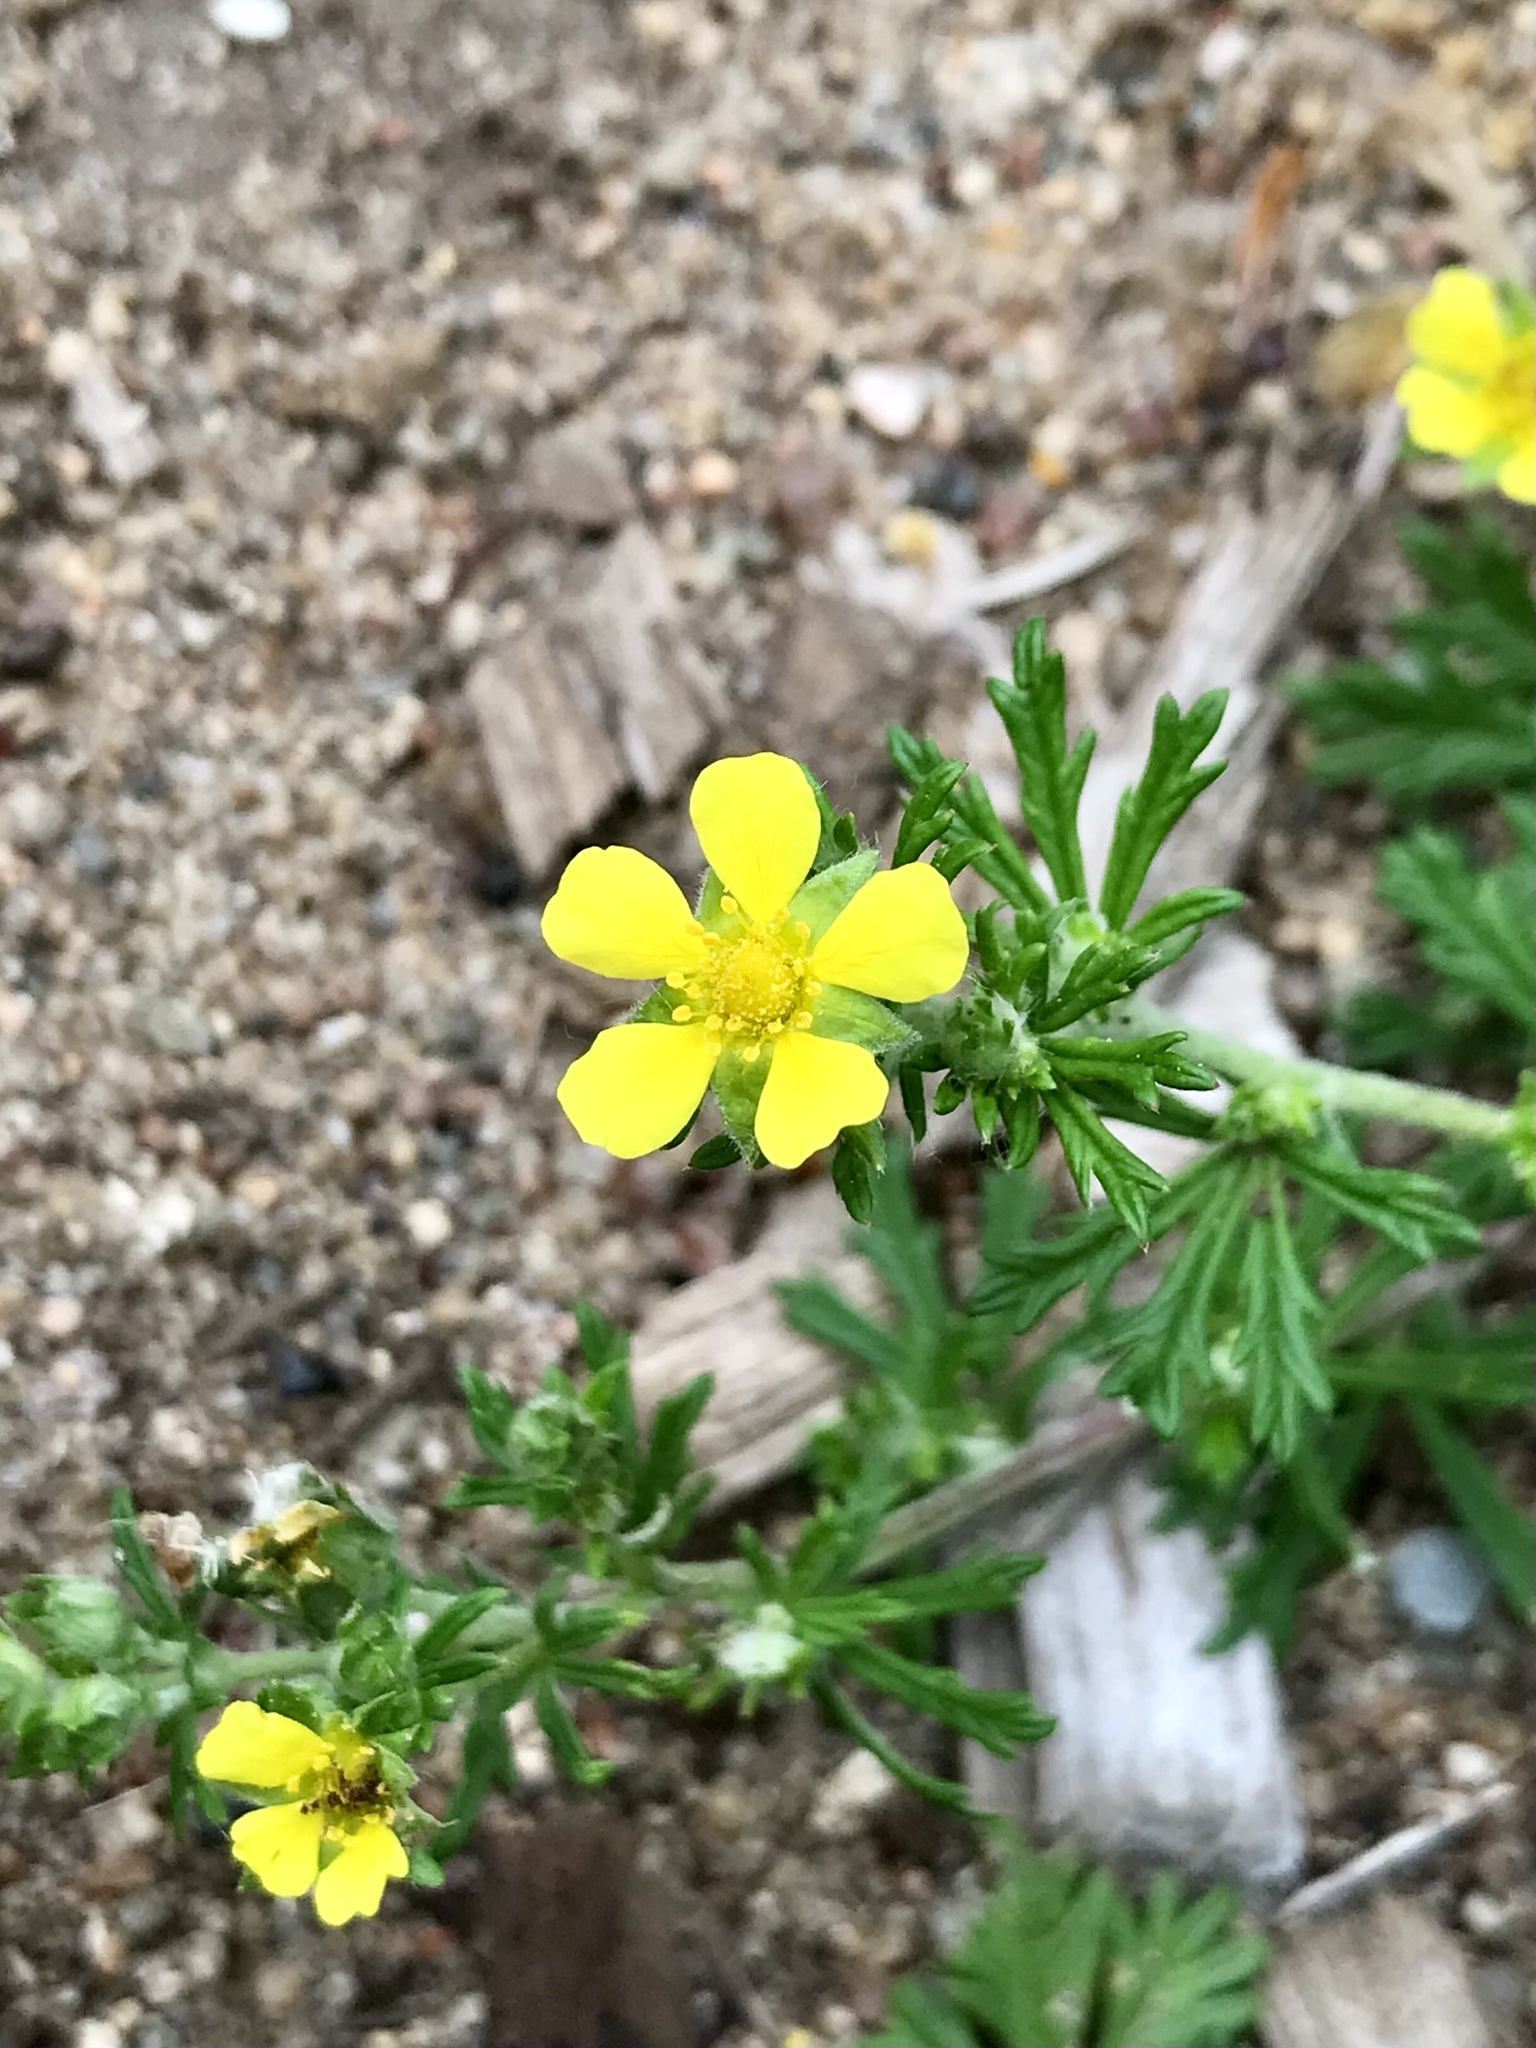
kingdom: Plantae
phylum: Tracheophyta
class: Magnoliopsida
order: Rosales
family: Rosaceae
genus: Potentilla
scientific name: Potentilla argentea
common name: Hoary cinquefoil
